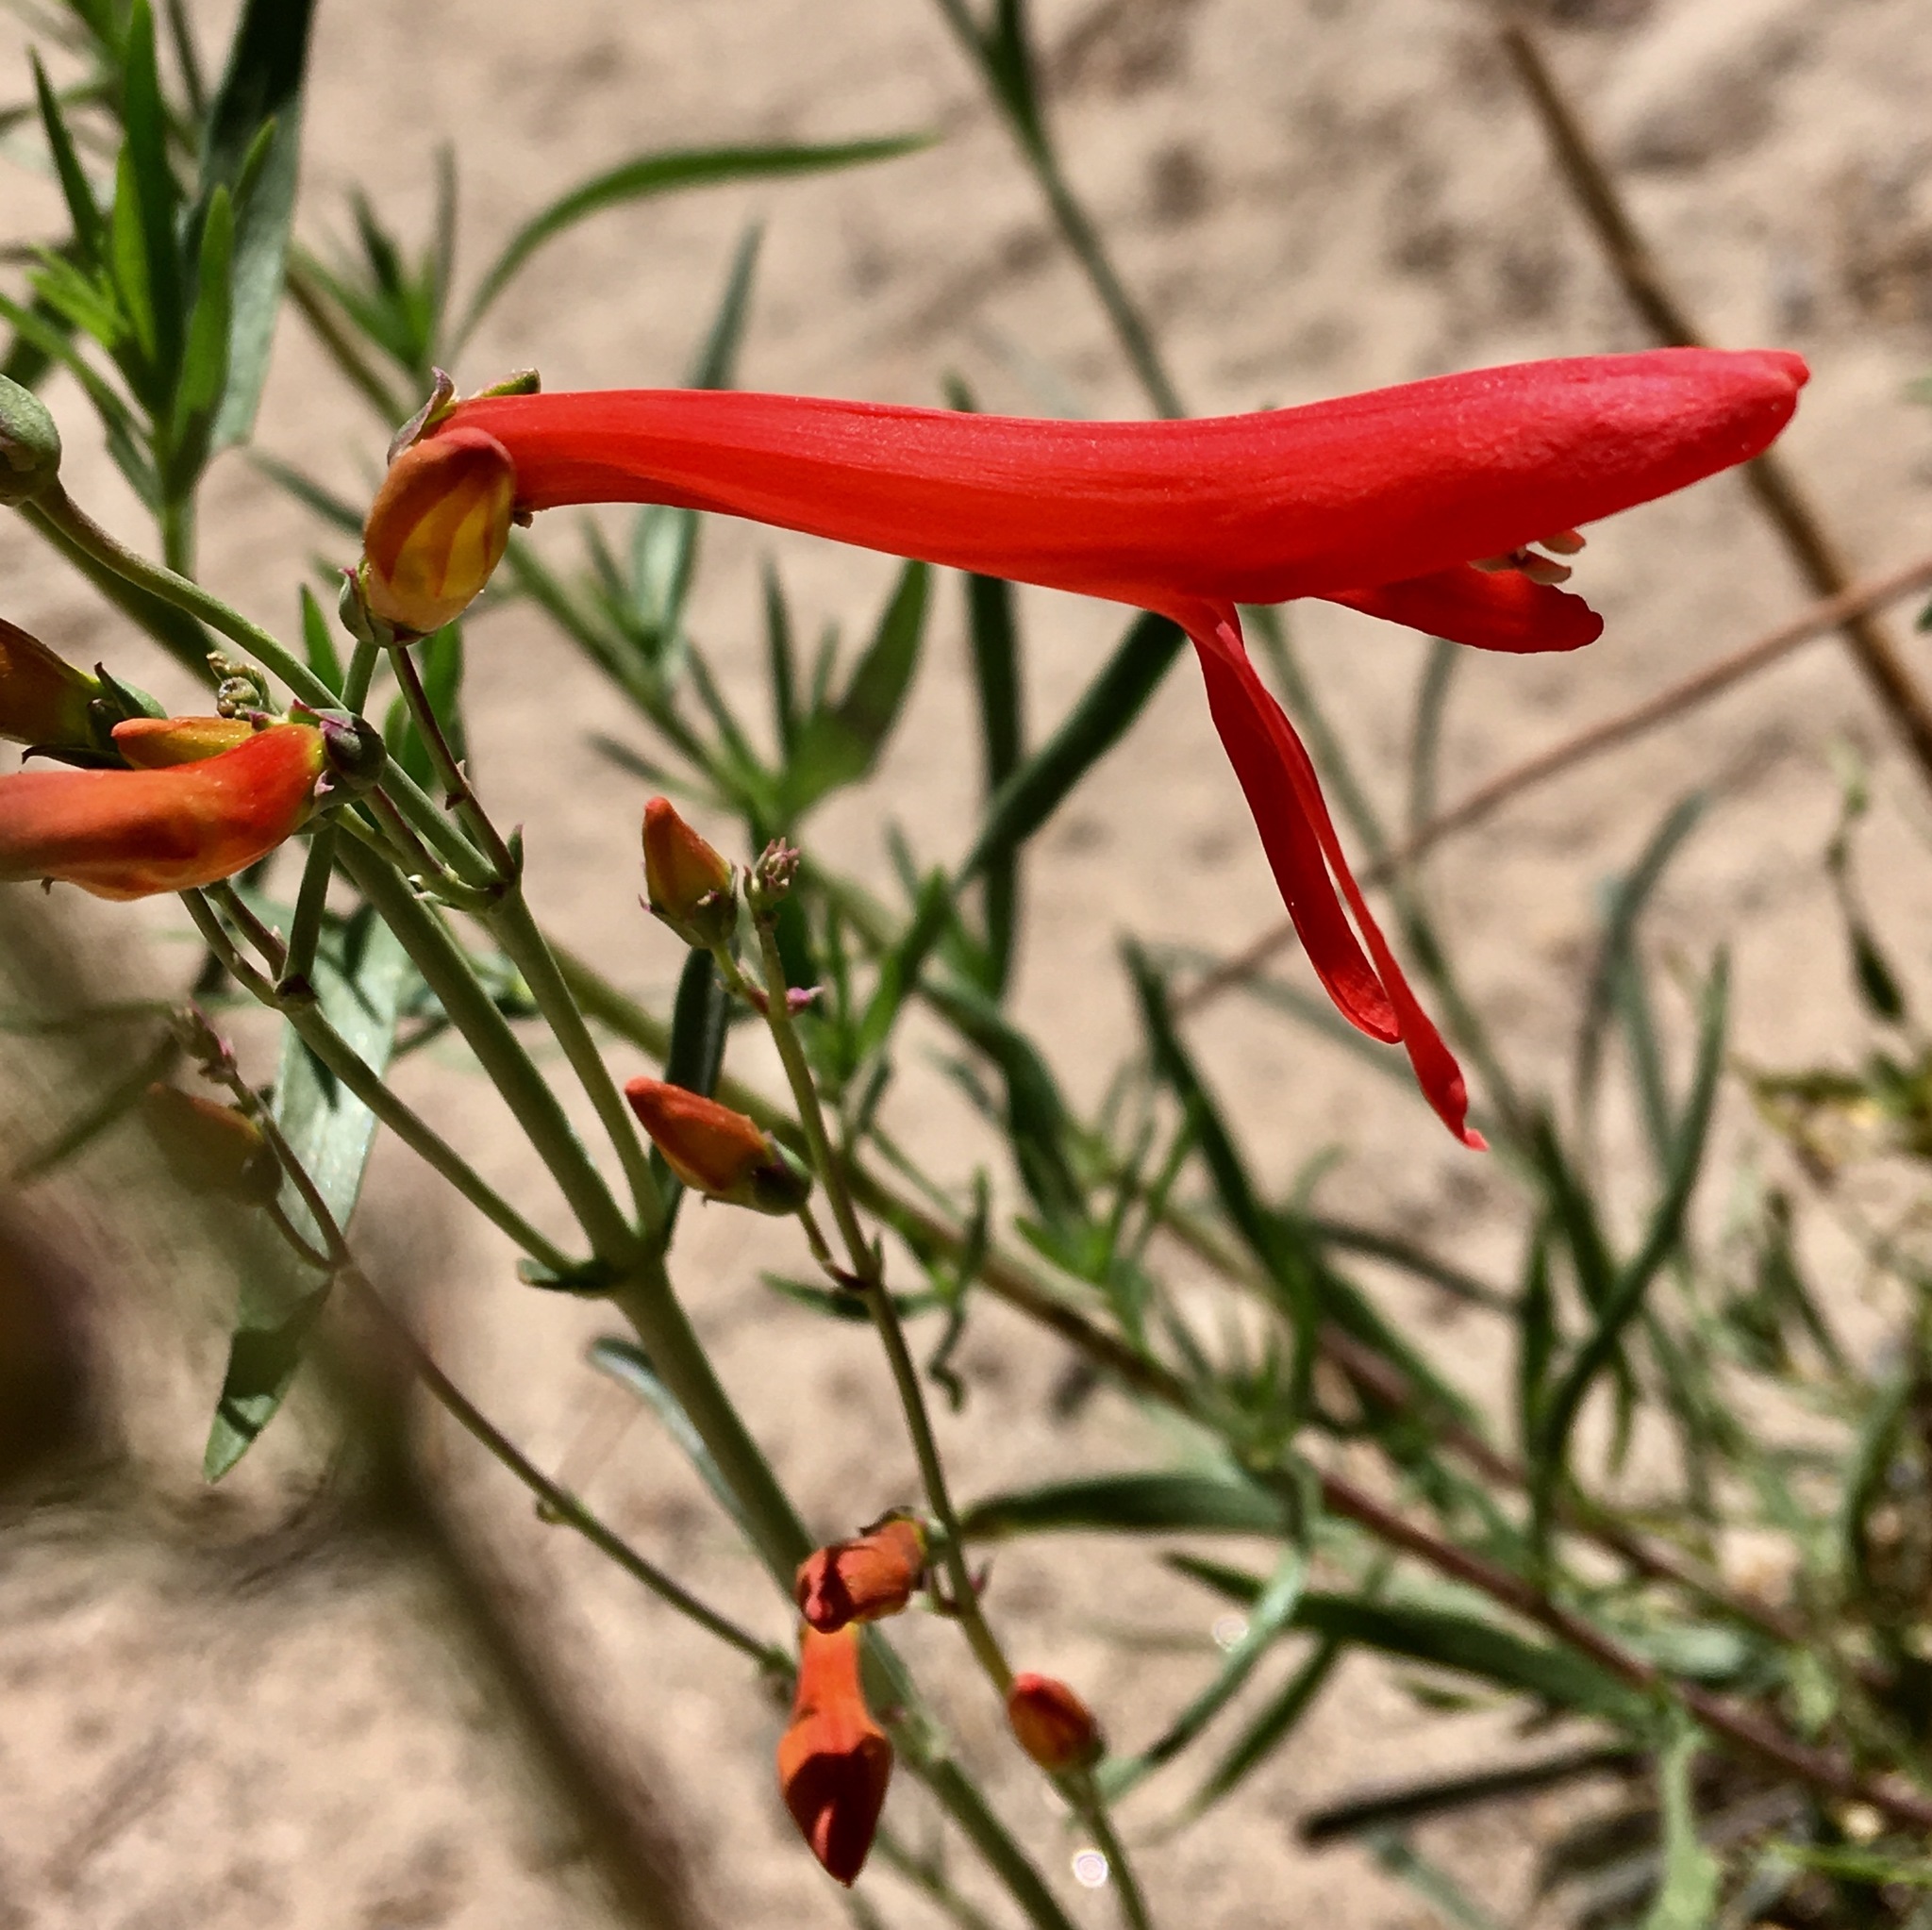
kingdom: Plantae
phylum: Tracheophyta
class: Magnoliopsida
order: Lamiales
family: Plantaginaceae
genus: Penstemon
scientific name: Penstemon labrosus
